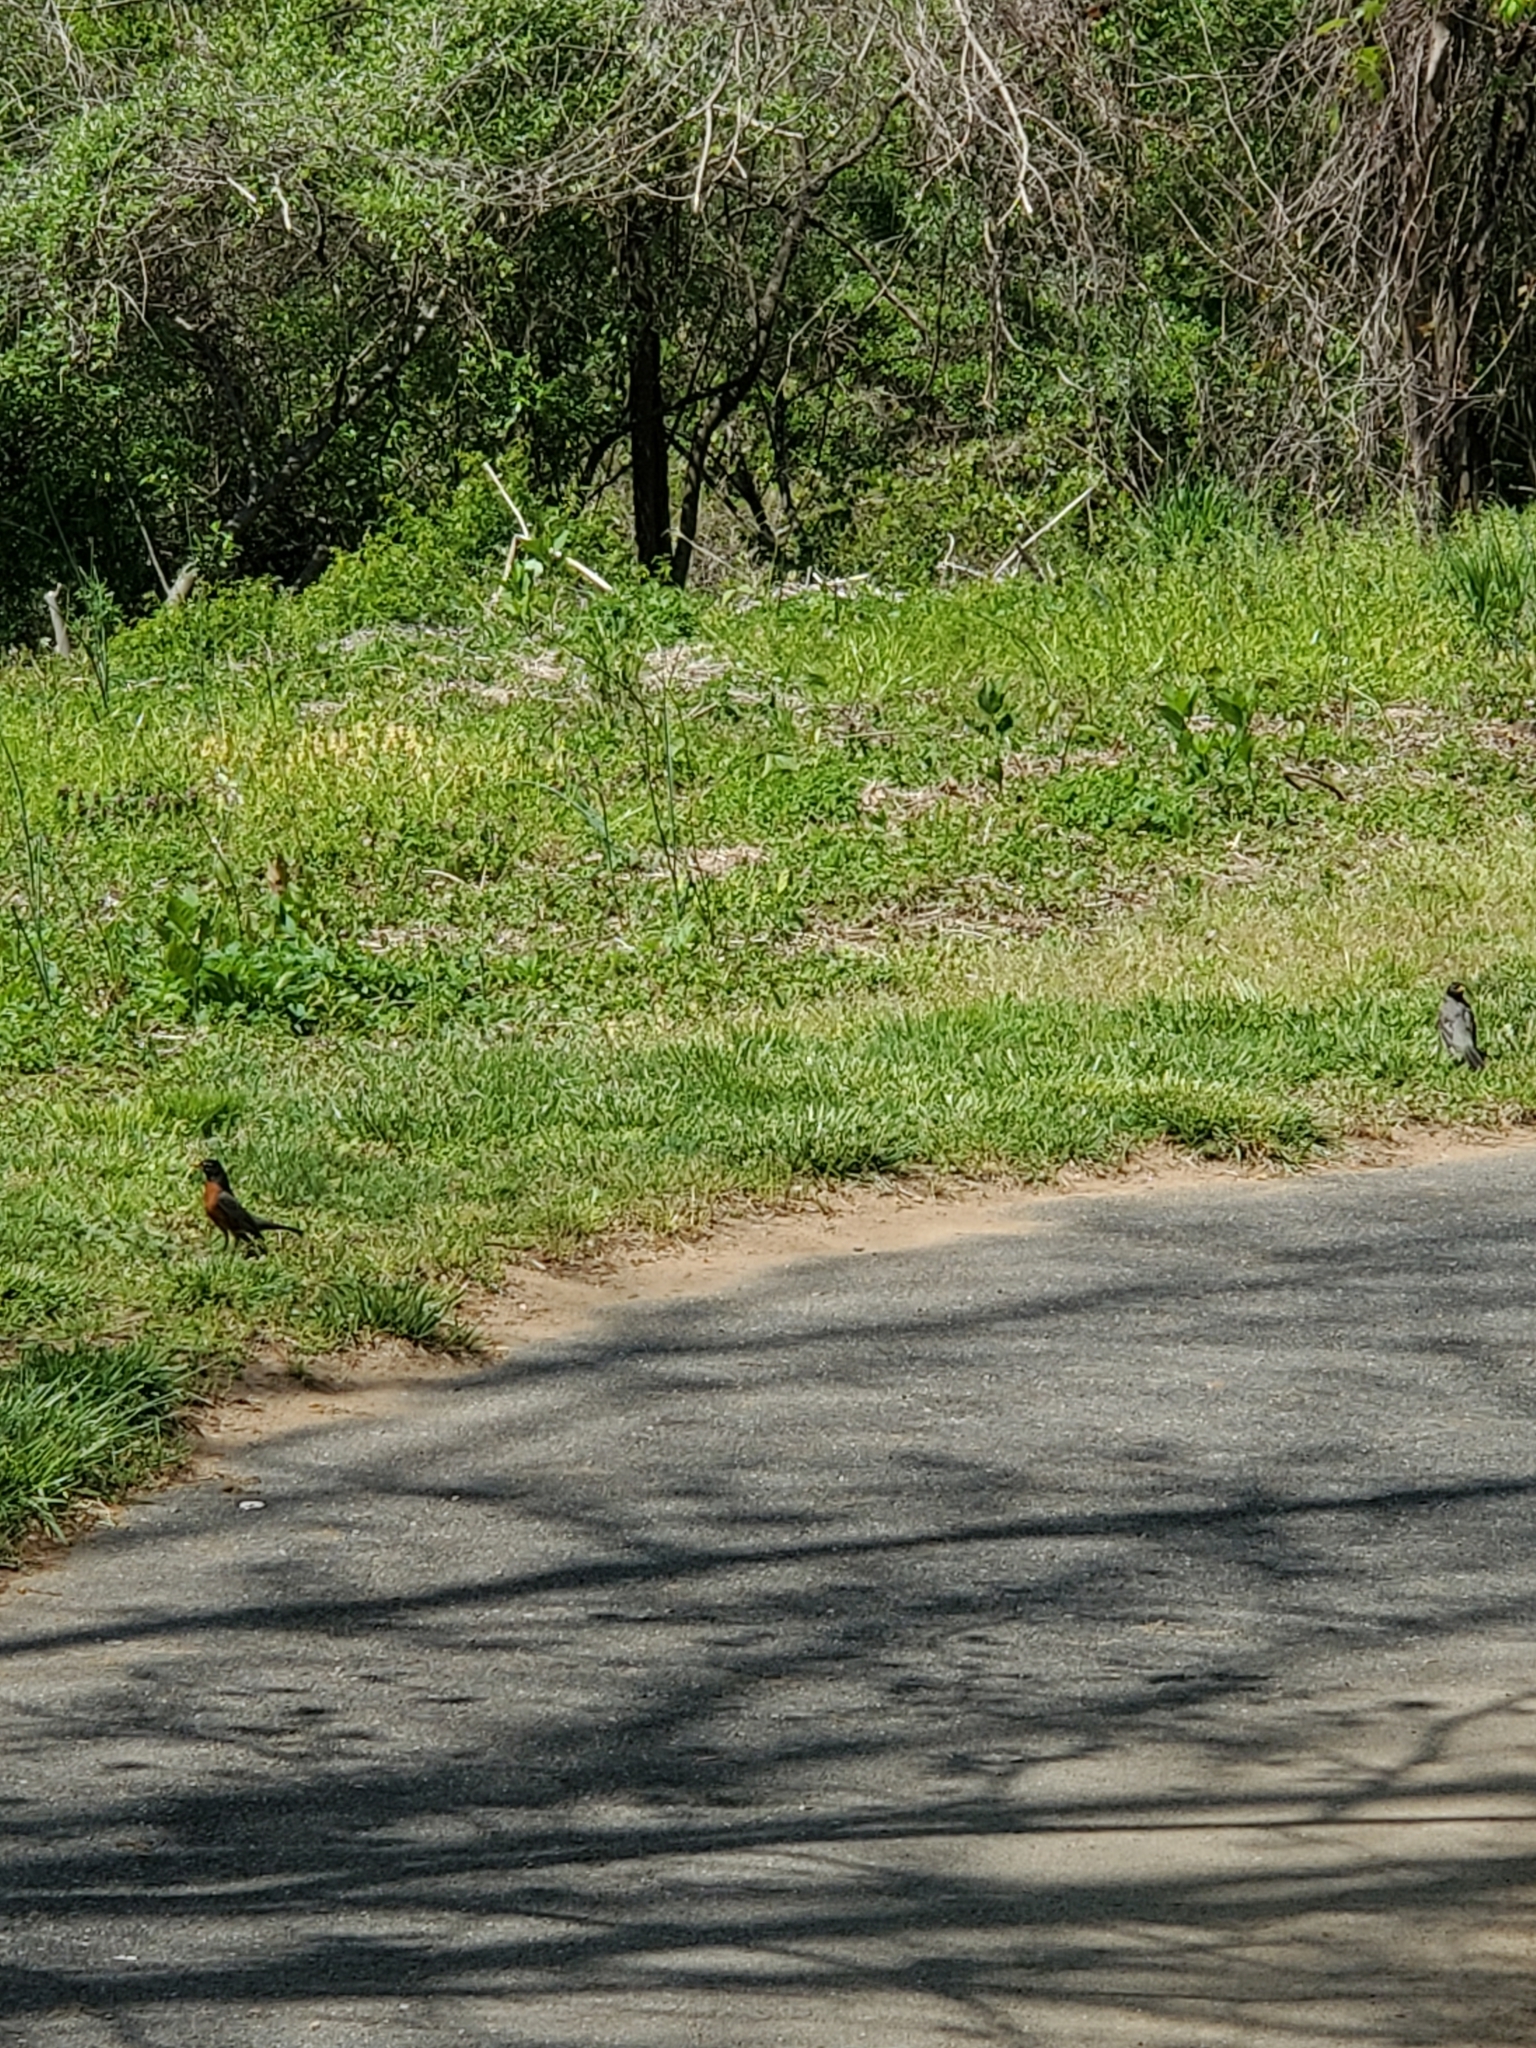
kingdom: Animalia
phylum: Chordata
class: Aves
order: Passeriformes
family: Turdidae
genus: Turdus
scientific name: Turdus migratorius
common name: American robin
